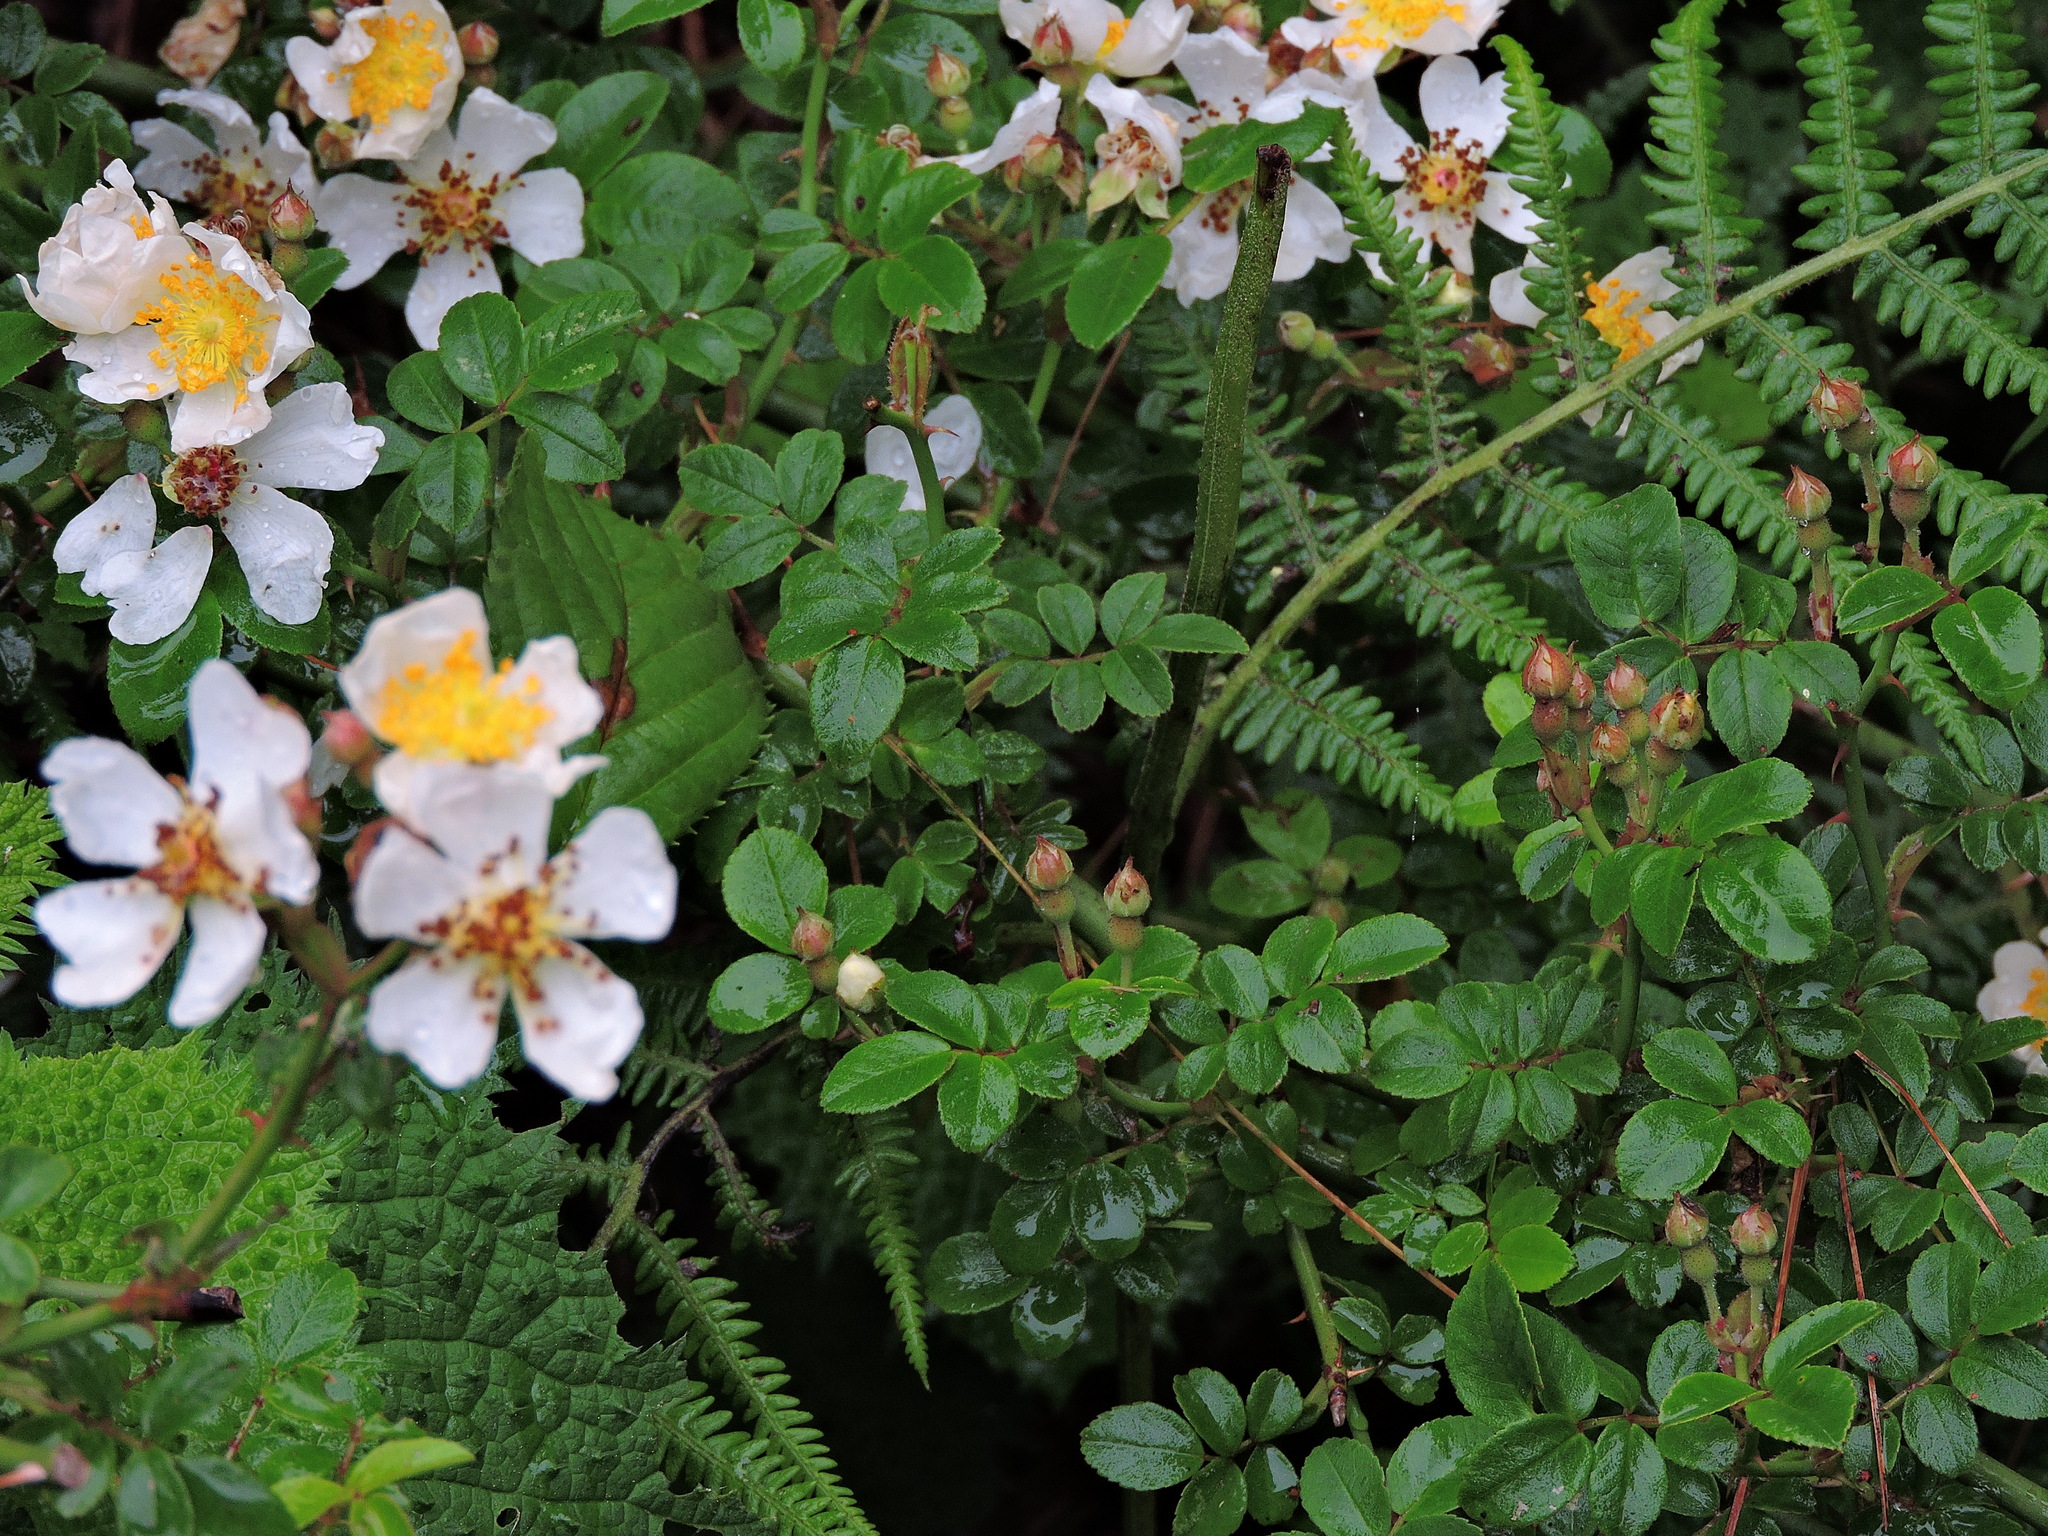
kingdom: Plantae
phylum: Tracheophyta
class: Magnoliopsida
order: Rosales
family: Rosaceae
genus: Rosa
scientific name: Rosa transmorrisonensis
